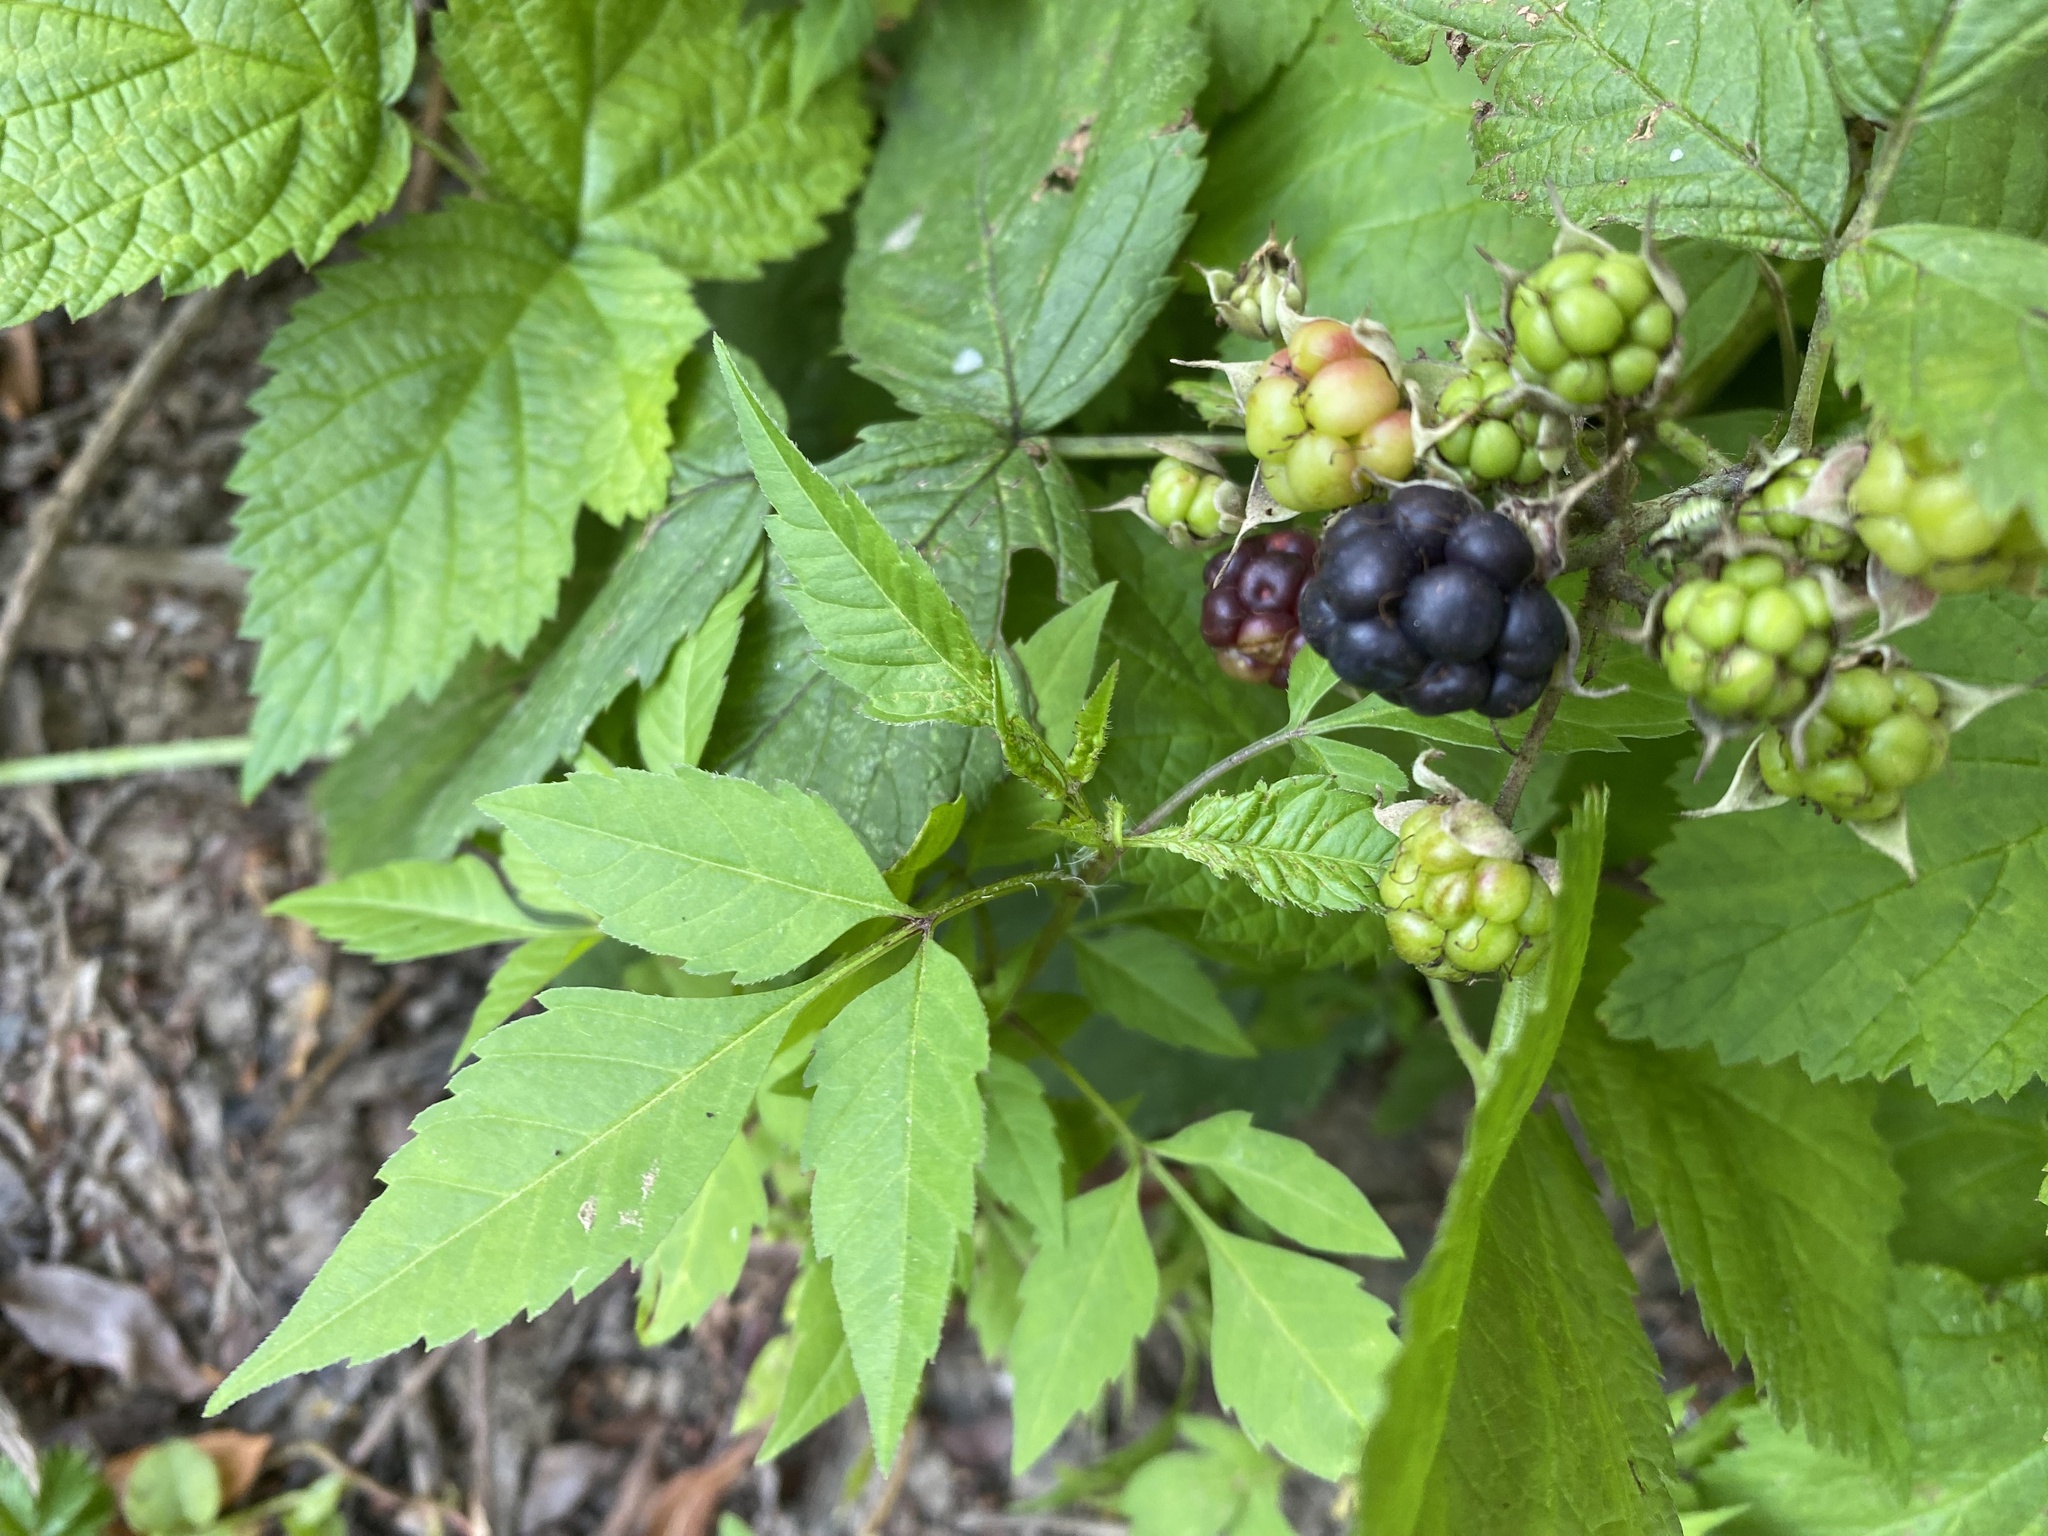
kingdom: Plantae
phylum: Tracheophyta
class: Magnoliopsida
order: Rosales
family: Rosaceae
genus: Rubus
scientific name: Rubus caesius
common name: Dewberry
